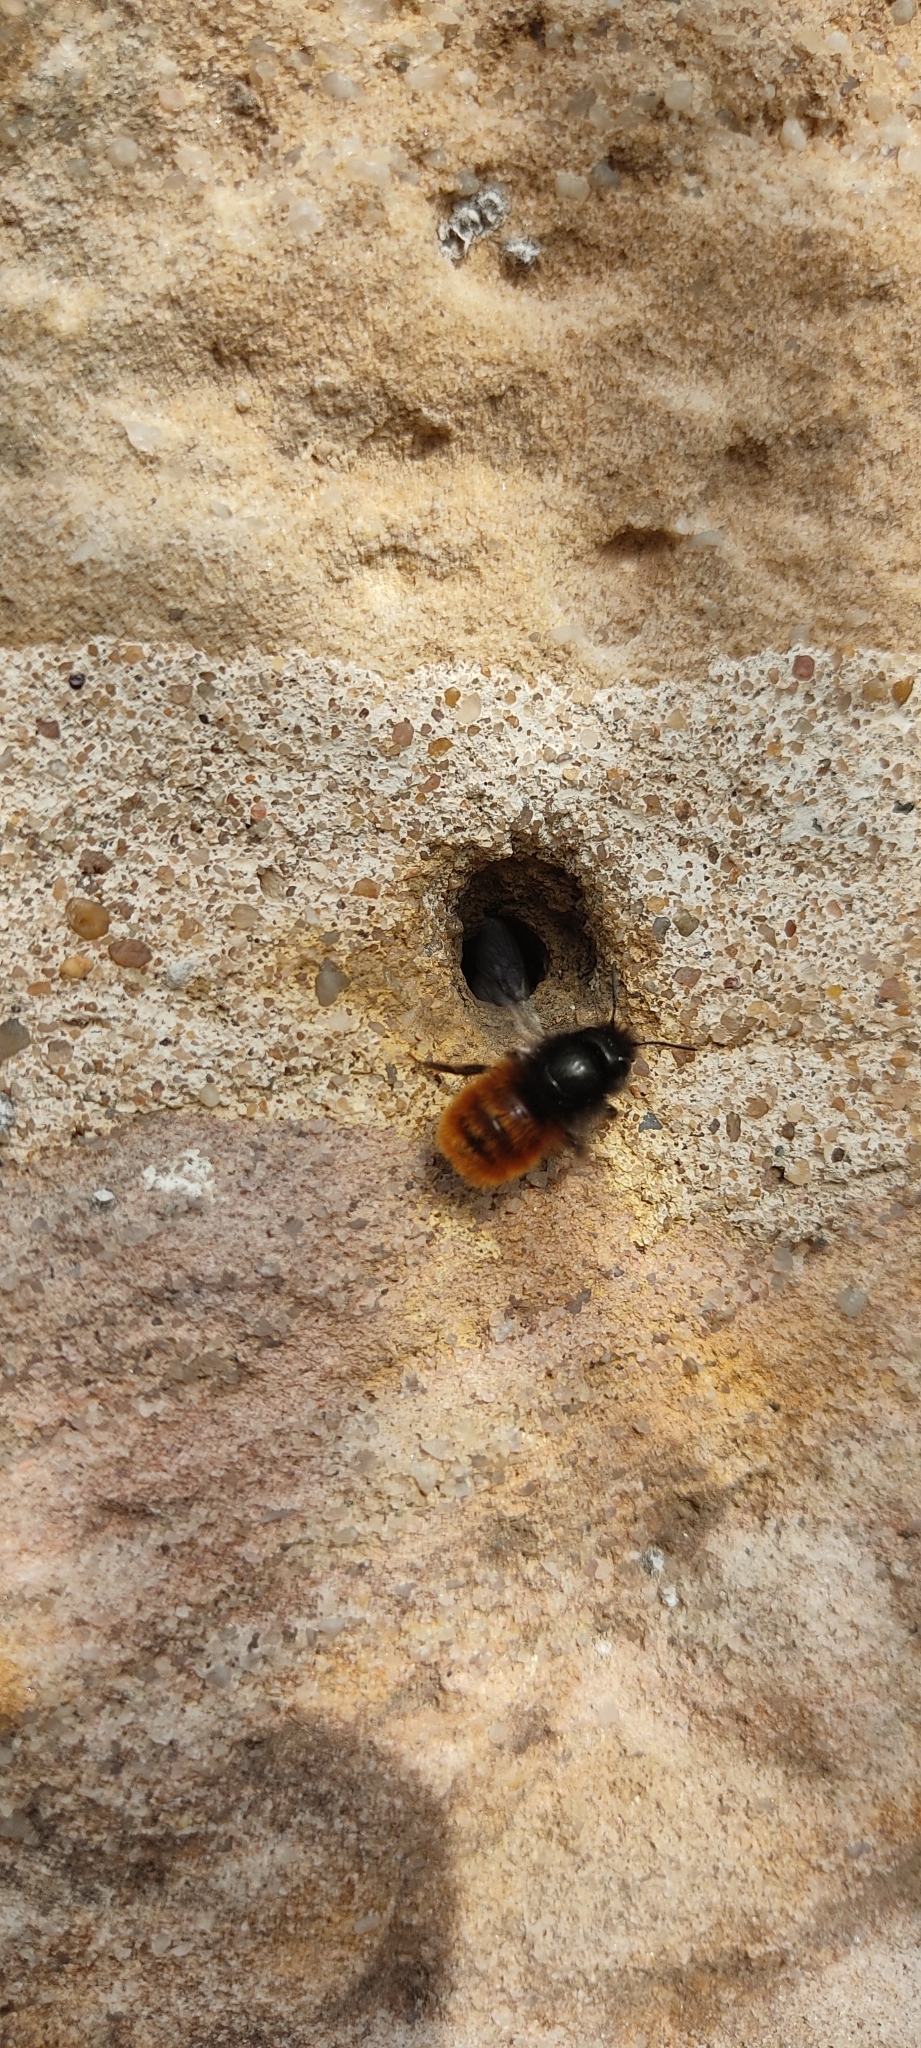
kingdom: Animalia
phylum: Arthropoda
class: Insecta
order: Hymenoptera
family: Megachilidae
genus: Osmia
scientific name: Osmia cornuta
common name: Mason bee
